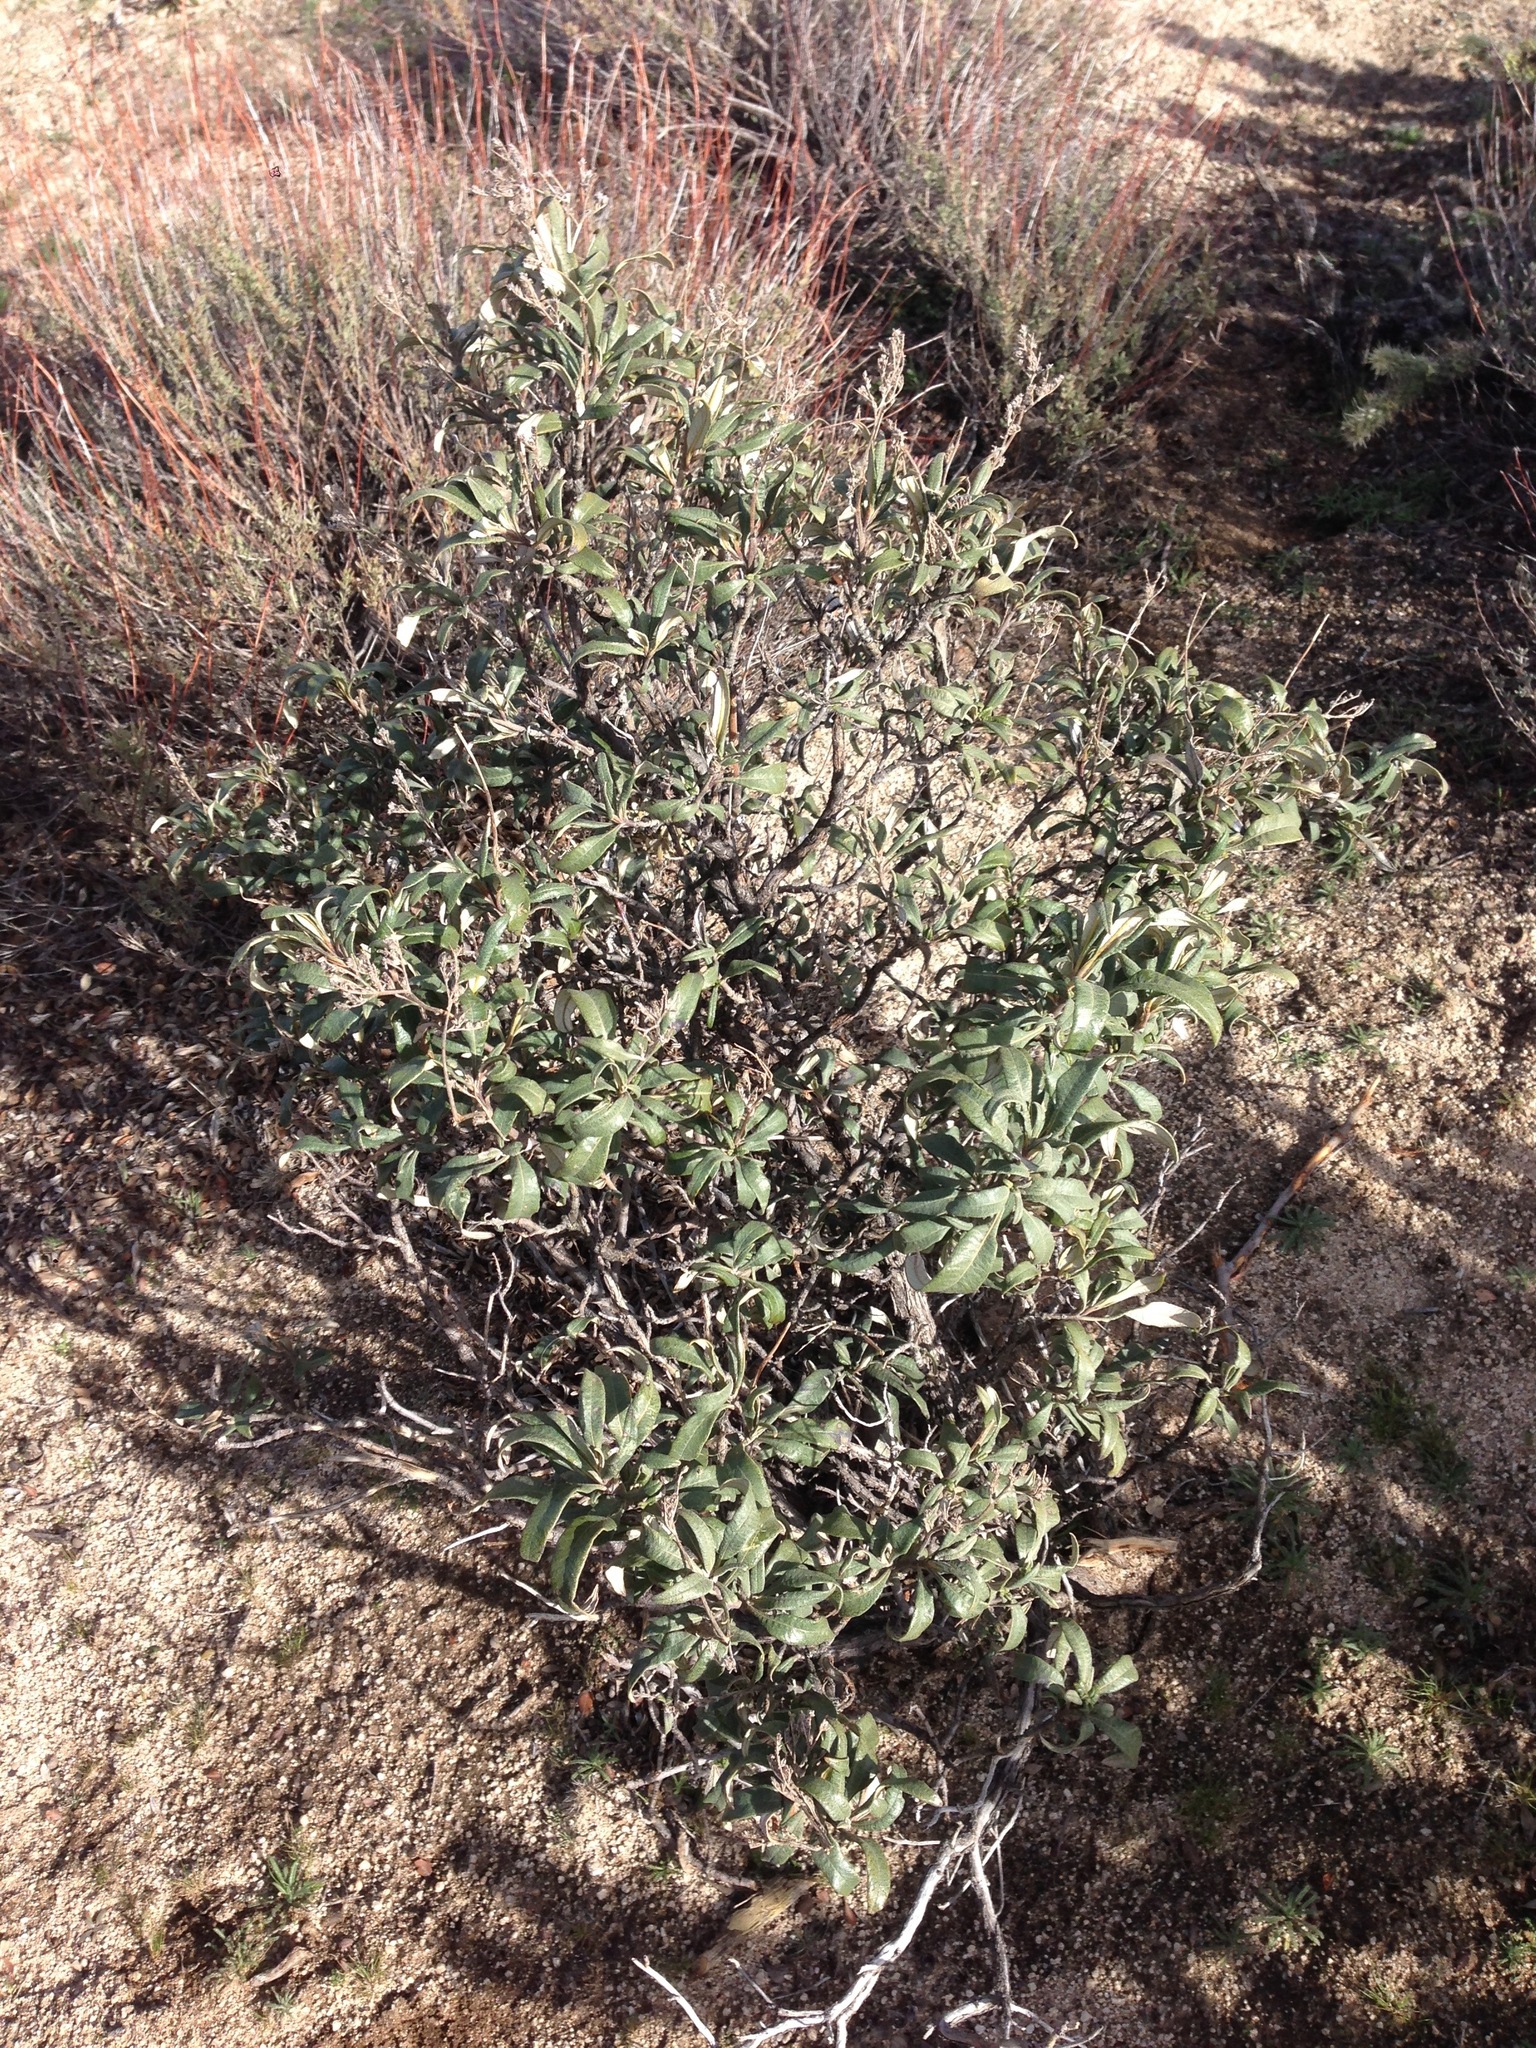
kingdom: Plantae
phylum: Tracheophyta
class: Magnoliopsida
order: Boraginales
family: Namaceae
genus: Eriodictyon
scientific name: Eriodictyon trichocalyx
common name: Hairy yerba-santa
